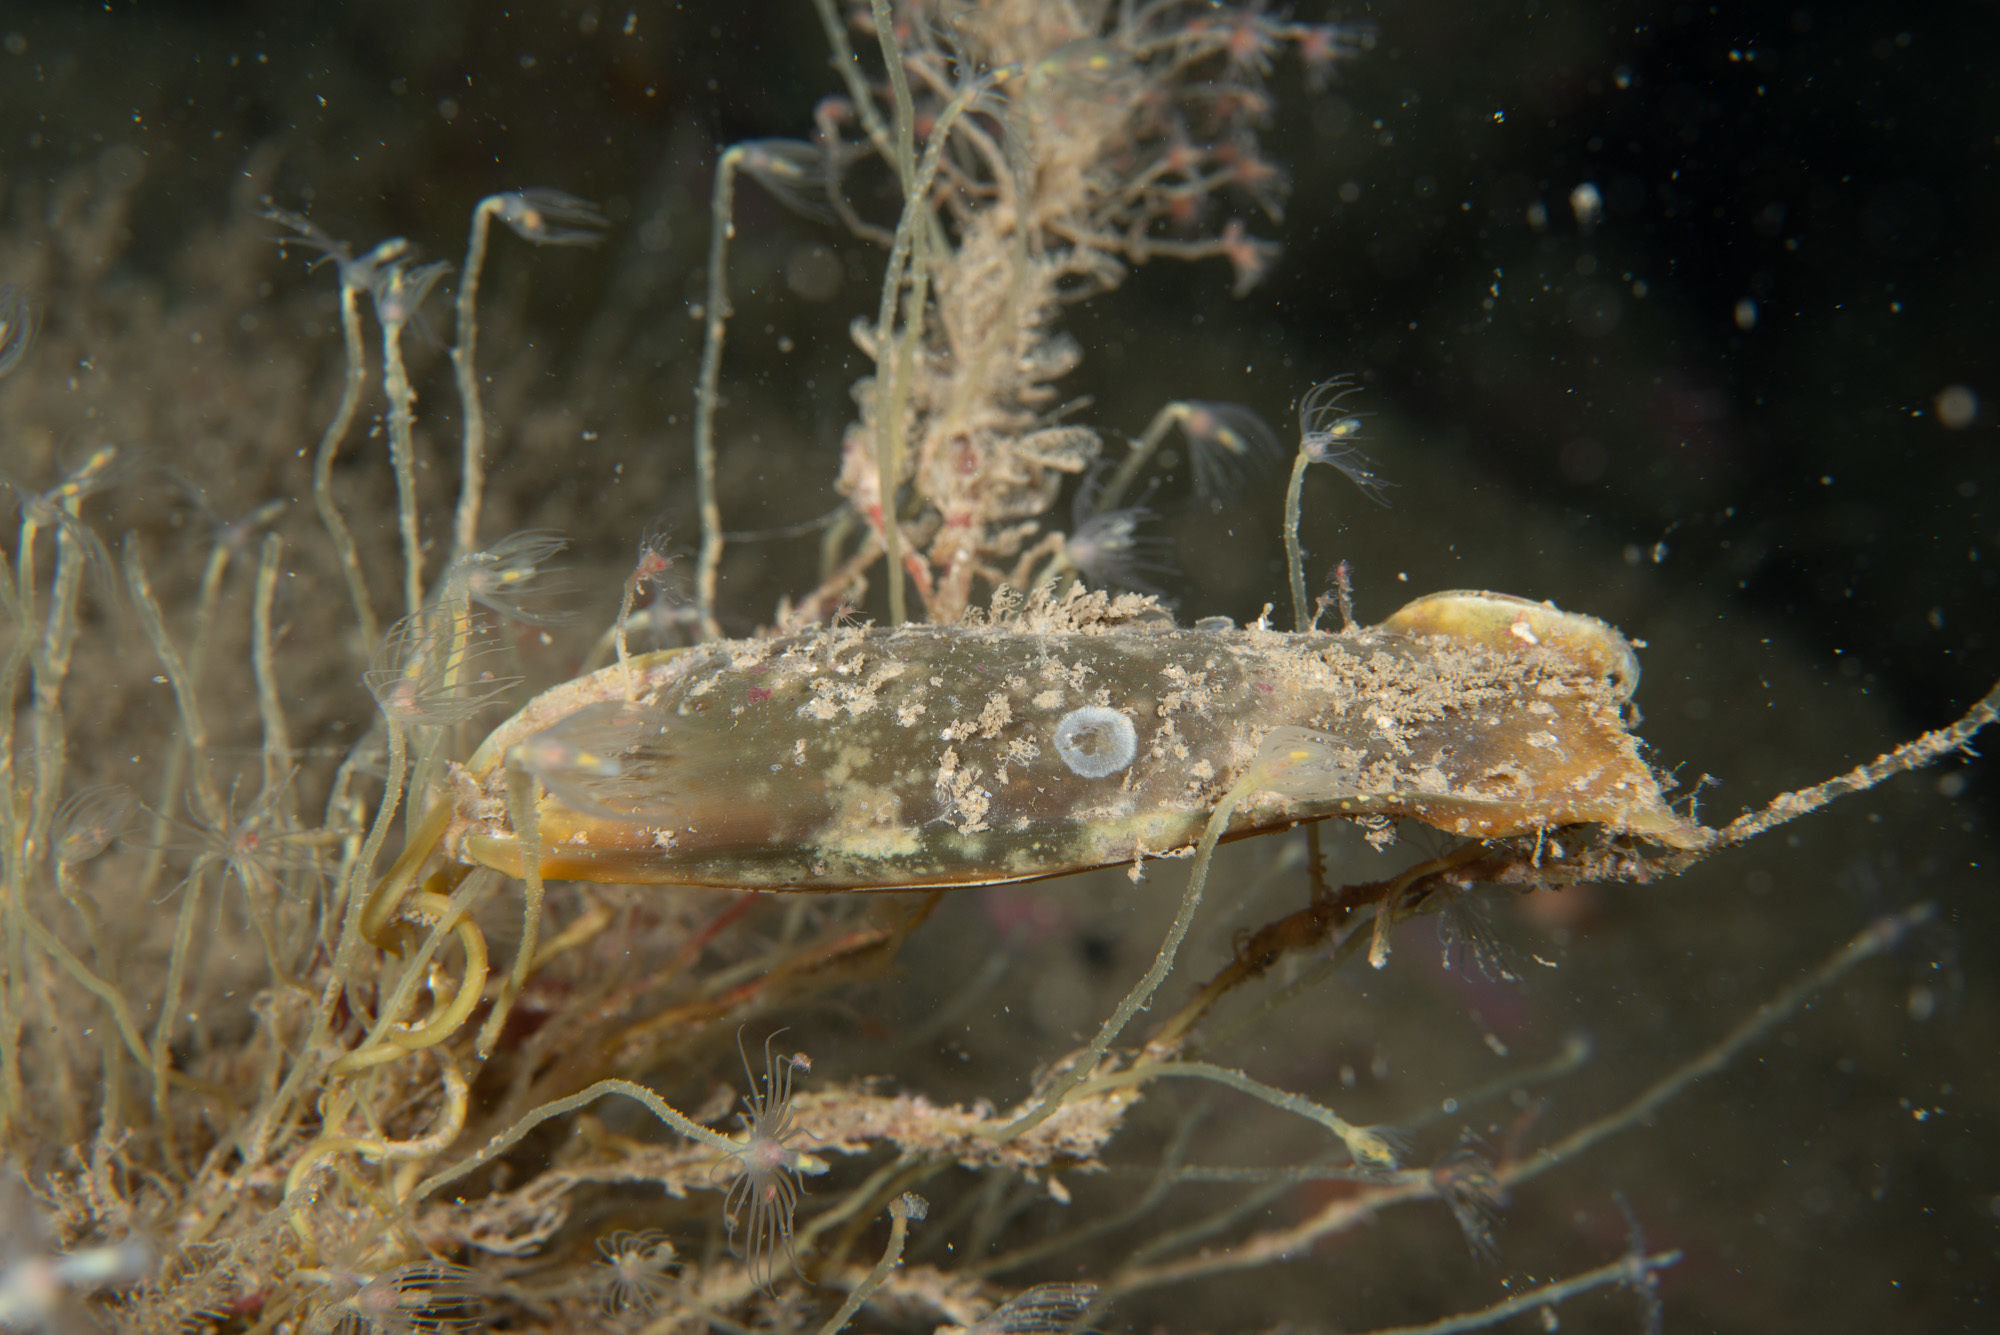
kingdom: Animalia
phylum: Chordata
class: Elasmobranchii
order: Carcharhiniformes
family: Scyliorhinidae
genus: Scyliorhinus
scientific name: Scyliorhinus canicula
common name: Lesser spotted dogfish
